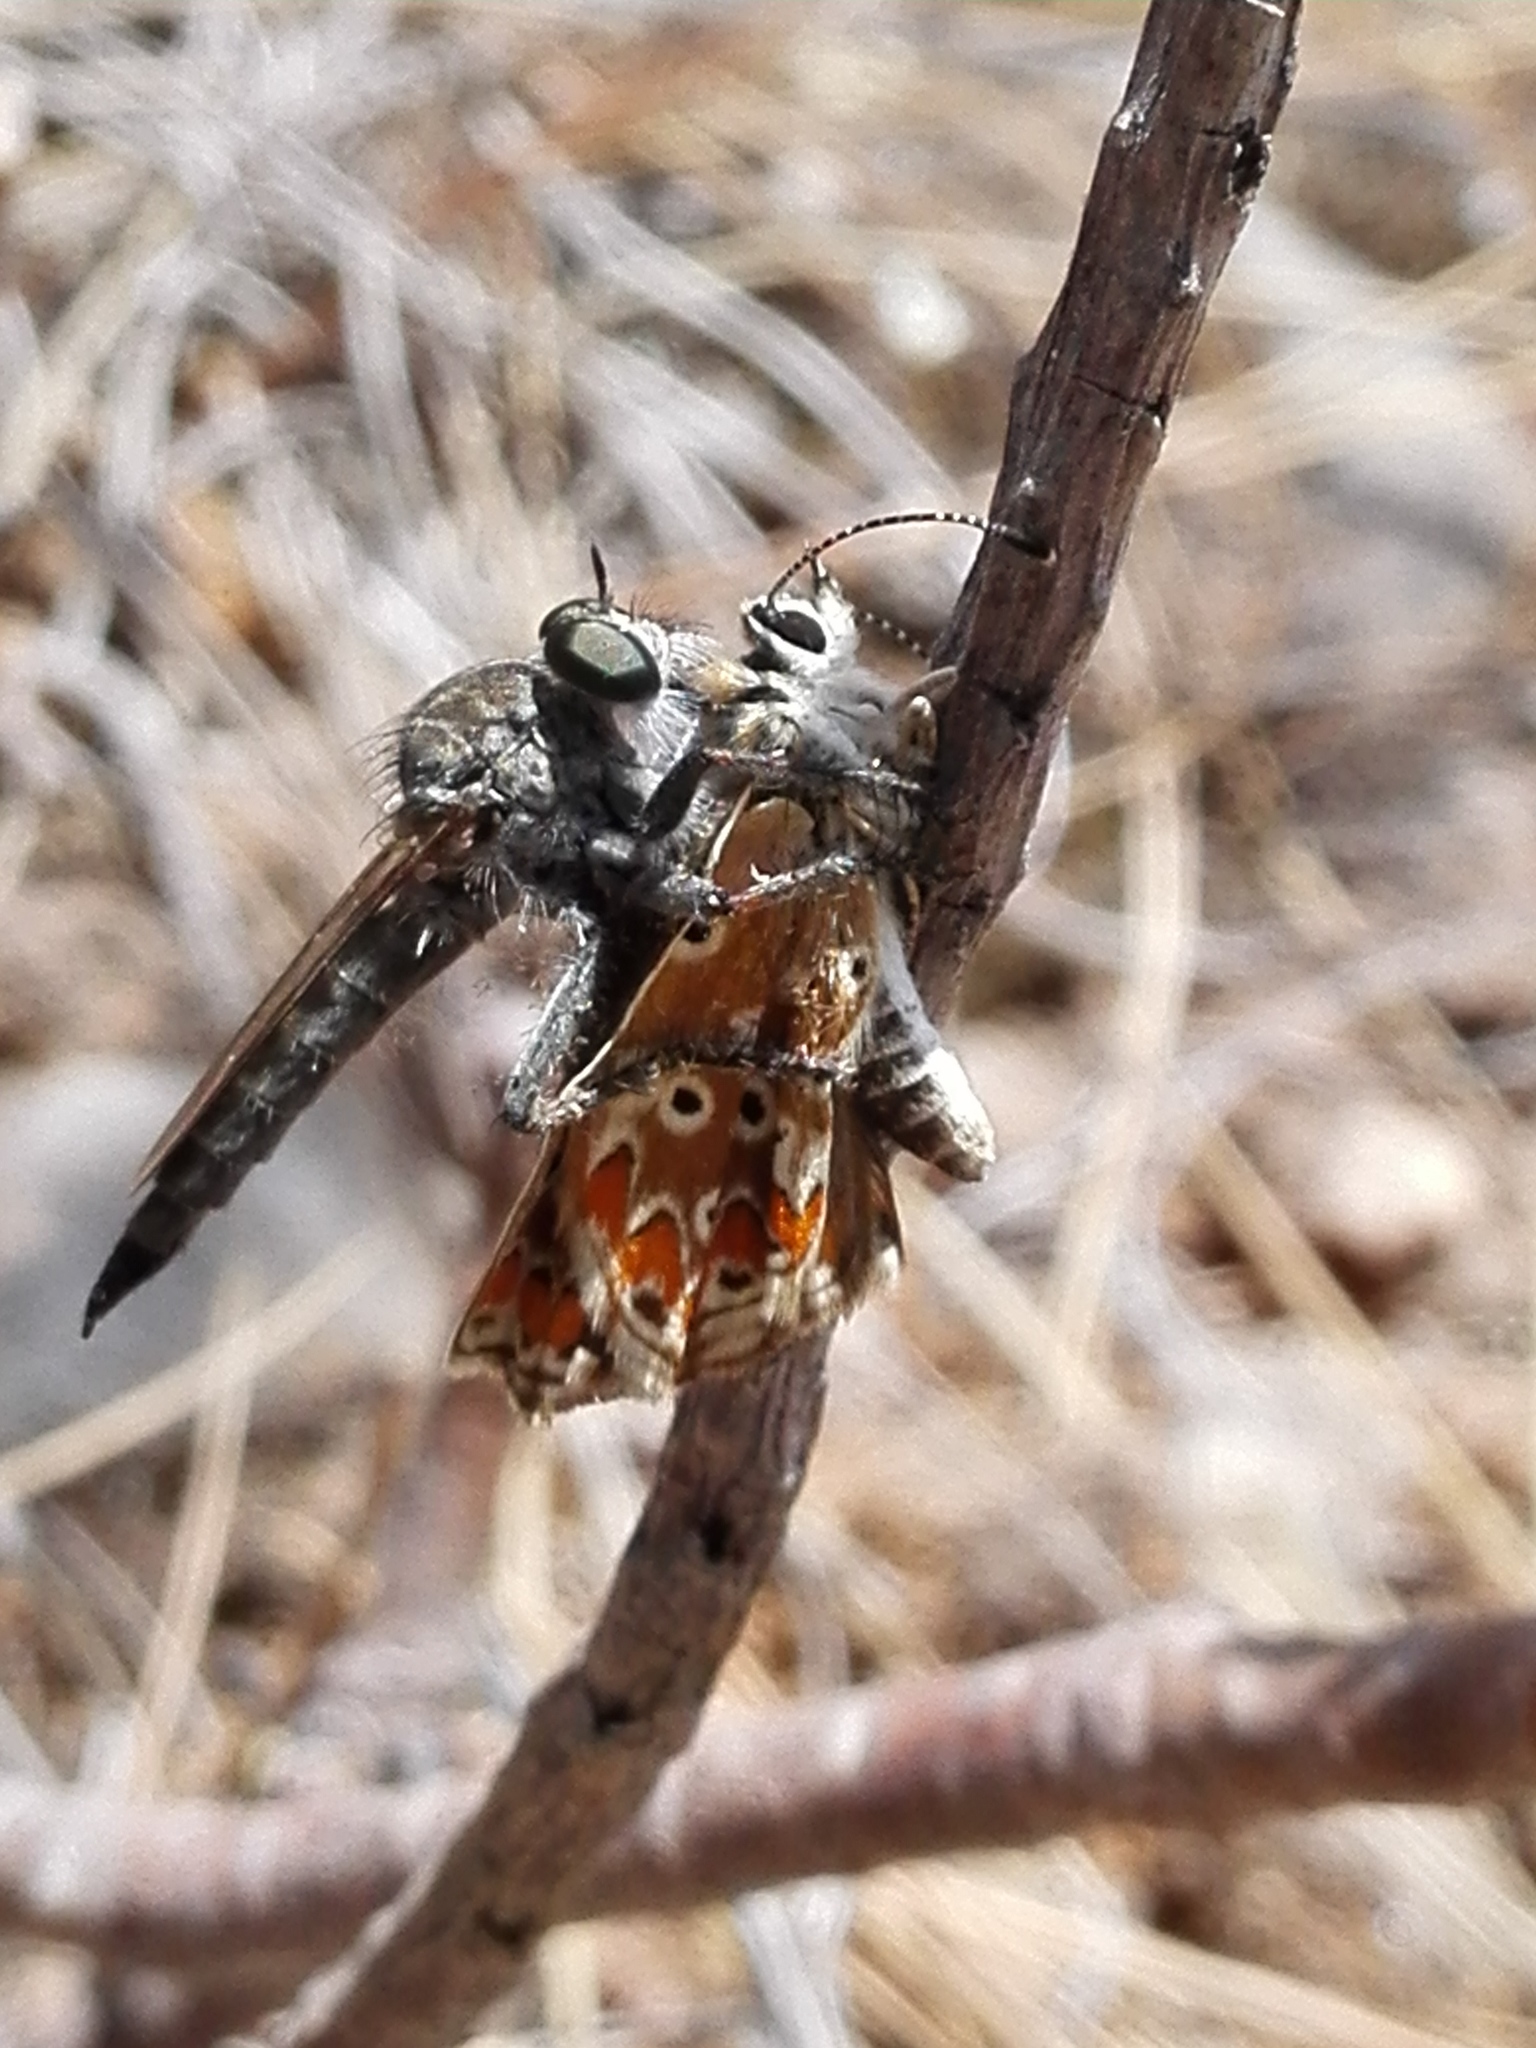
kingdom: Animalia
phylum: Arthropoda
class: Insecta
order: Lepidoptera
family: Lycaenidae
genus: Aricia
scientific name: Aricia cramera
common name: Eschscholtz´s brown  argus
